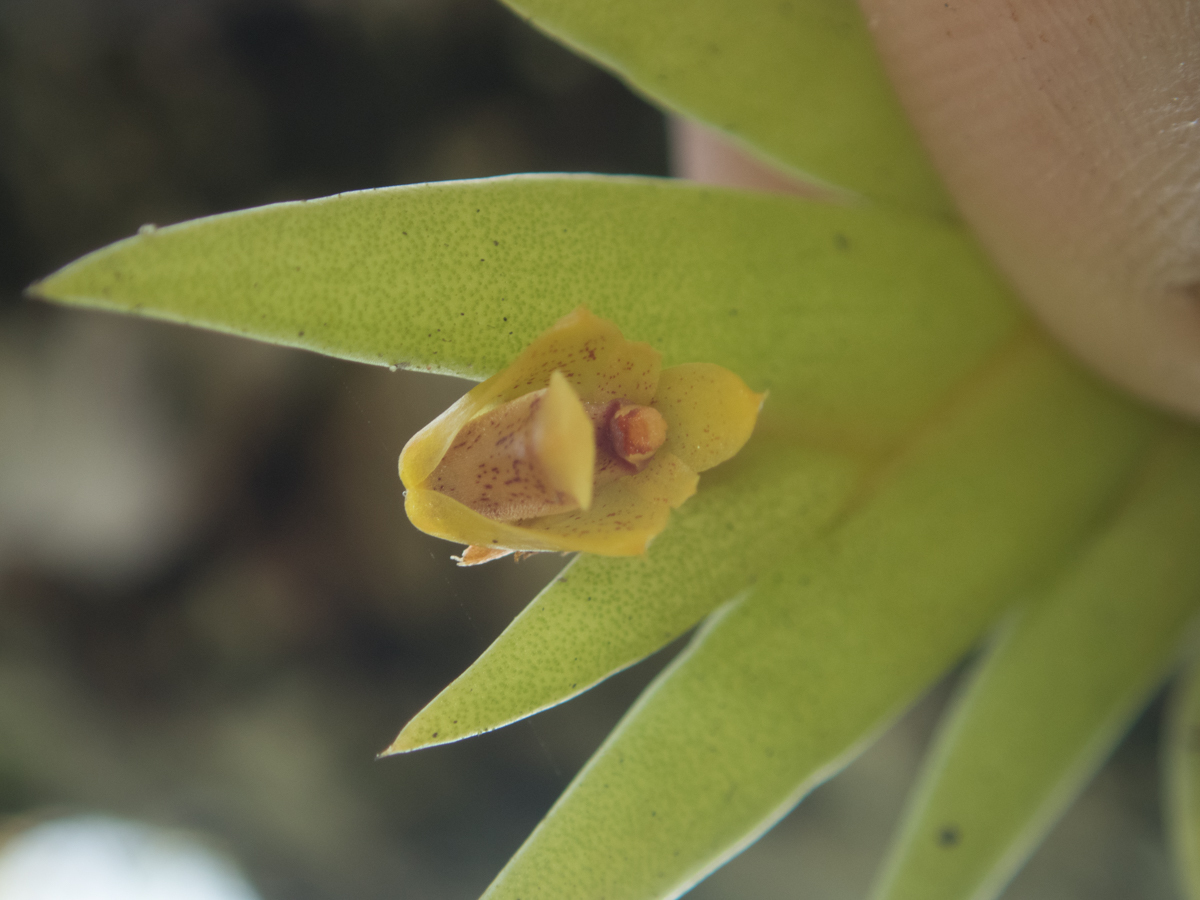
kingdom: Plantae
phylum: Tracheophyta
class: Liliopsida
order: Asparagales
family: Orchidaceae
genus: Oxystophyllum
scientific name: Oxystophyllum carnosum
